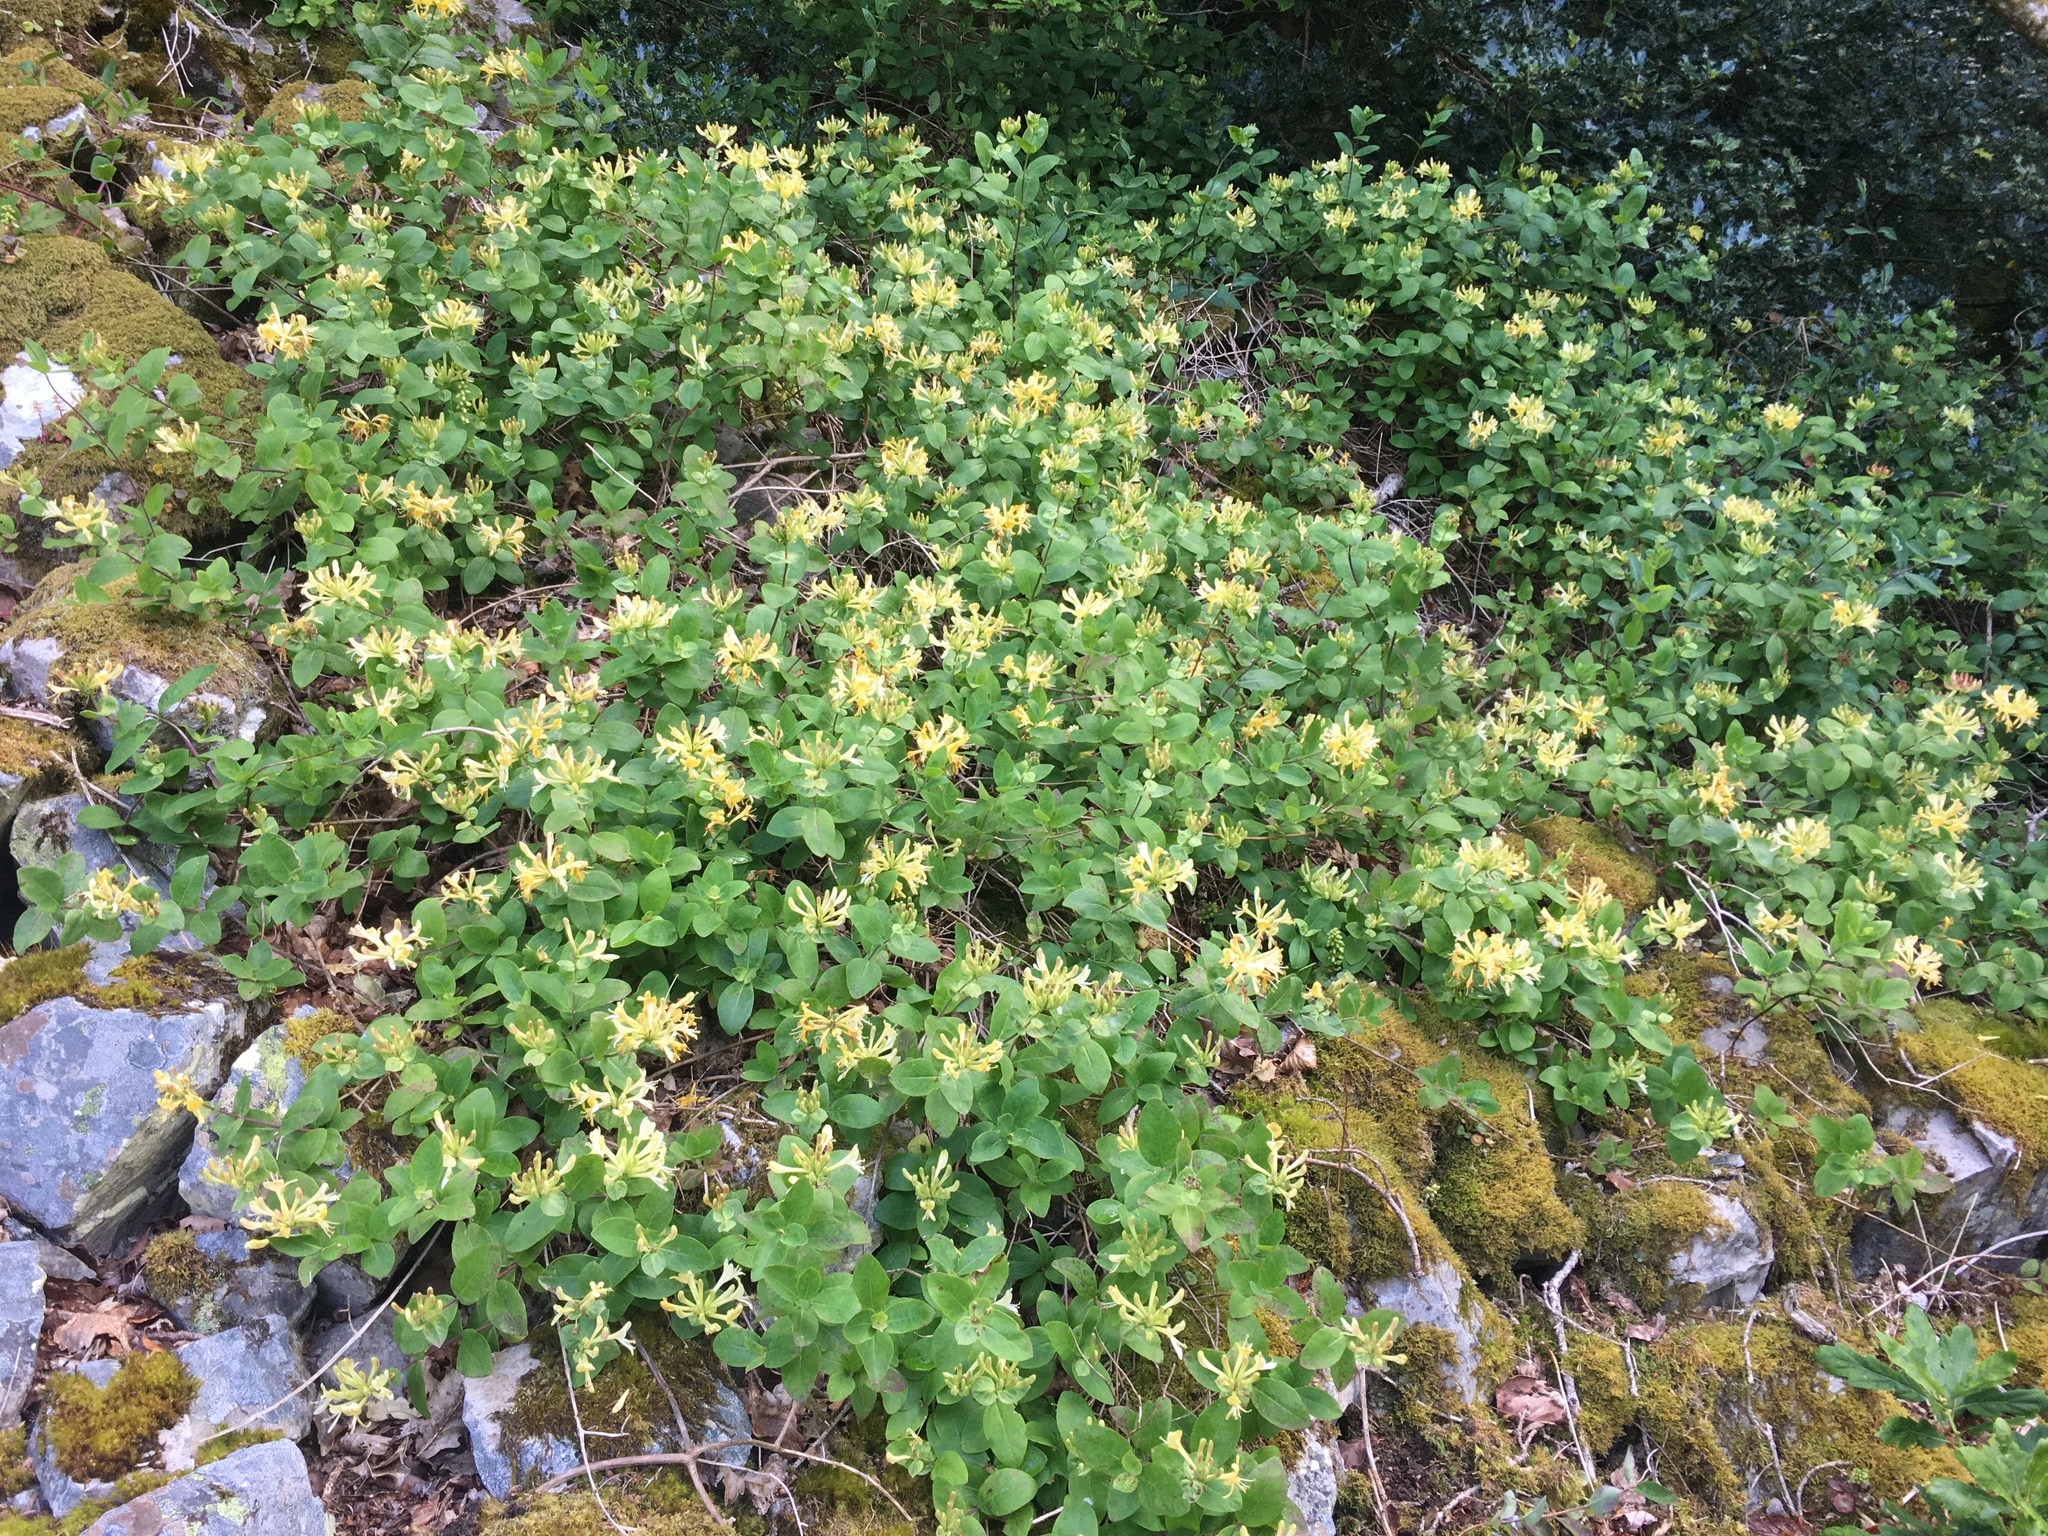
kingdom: Plantae
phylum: Tracheophyta
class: Magnoliopsida
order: Dipsacales
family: Caprifoliaceae
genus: Lonicera
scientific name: Lonicera periclymenum
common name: European honeysuckle
